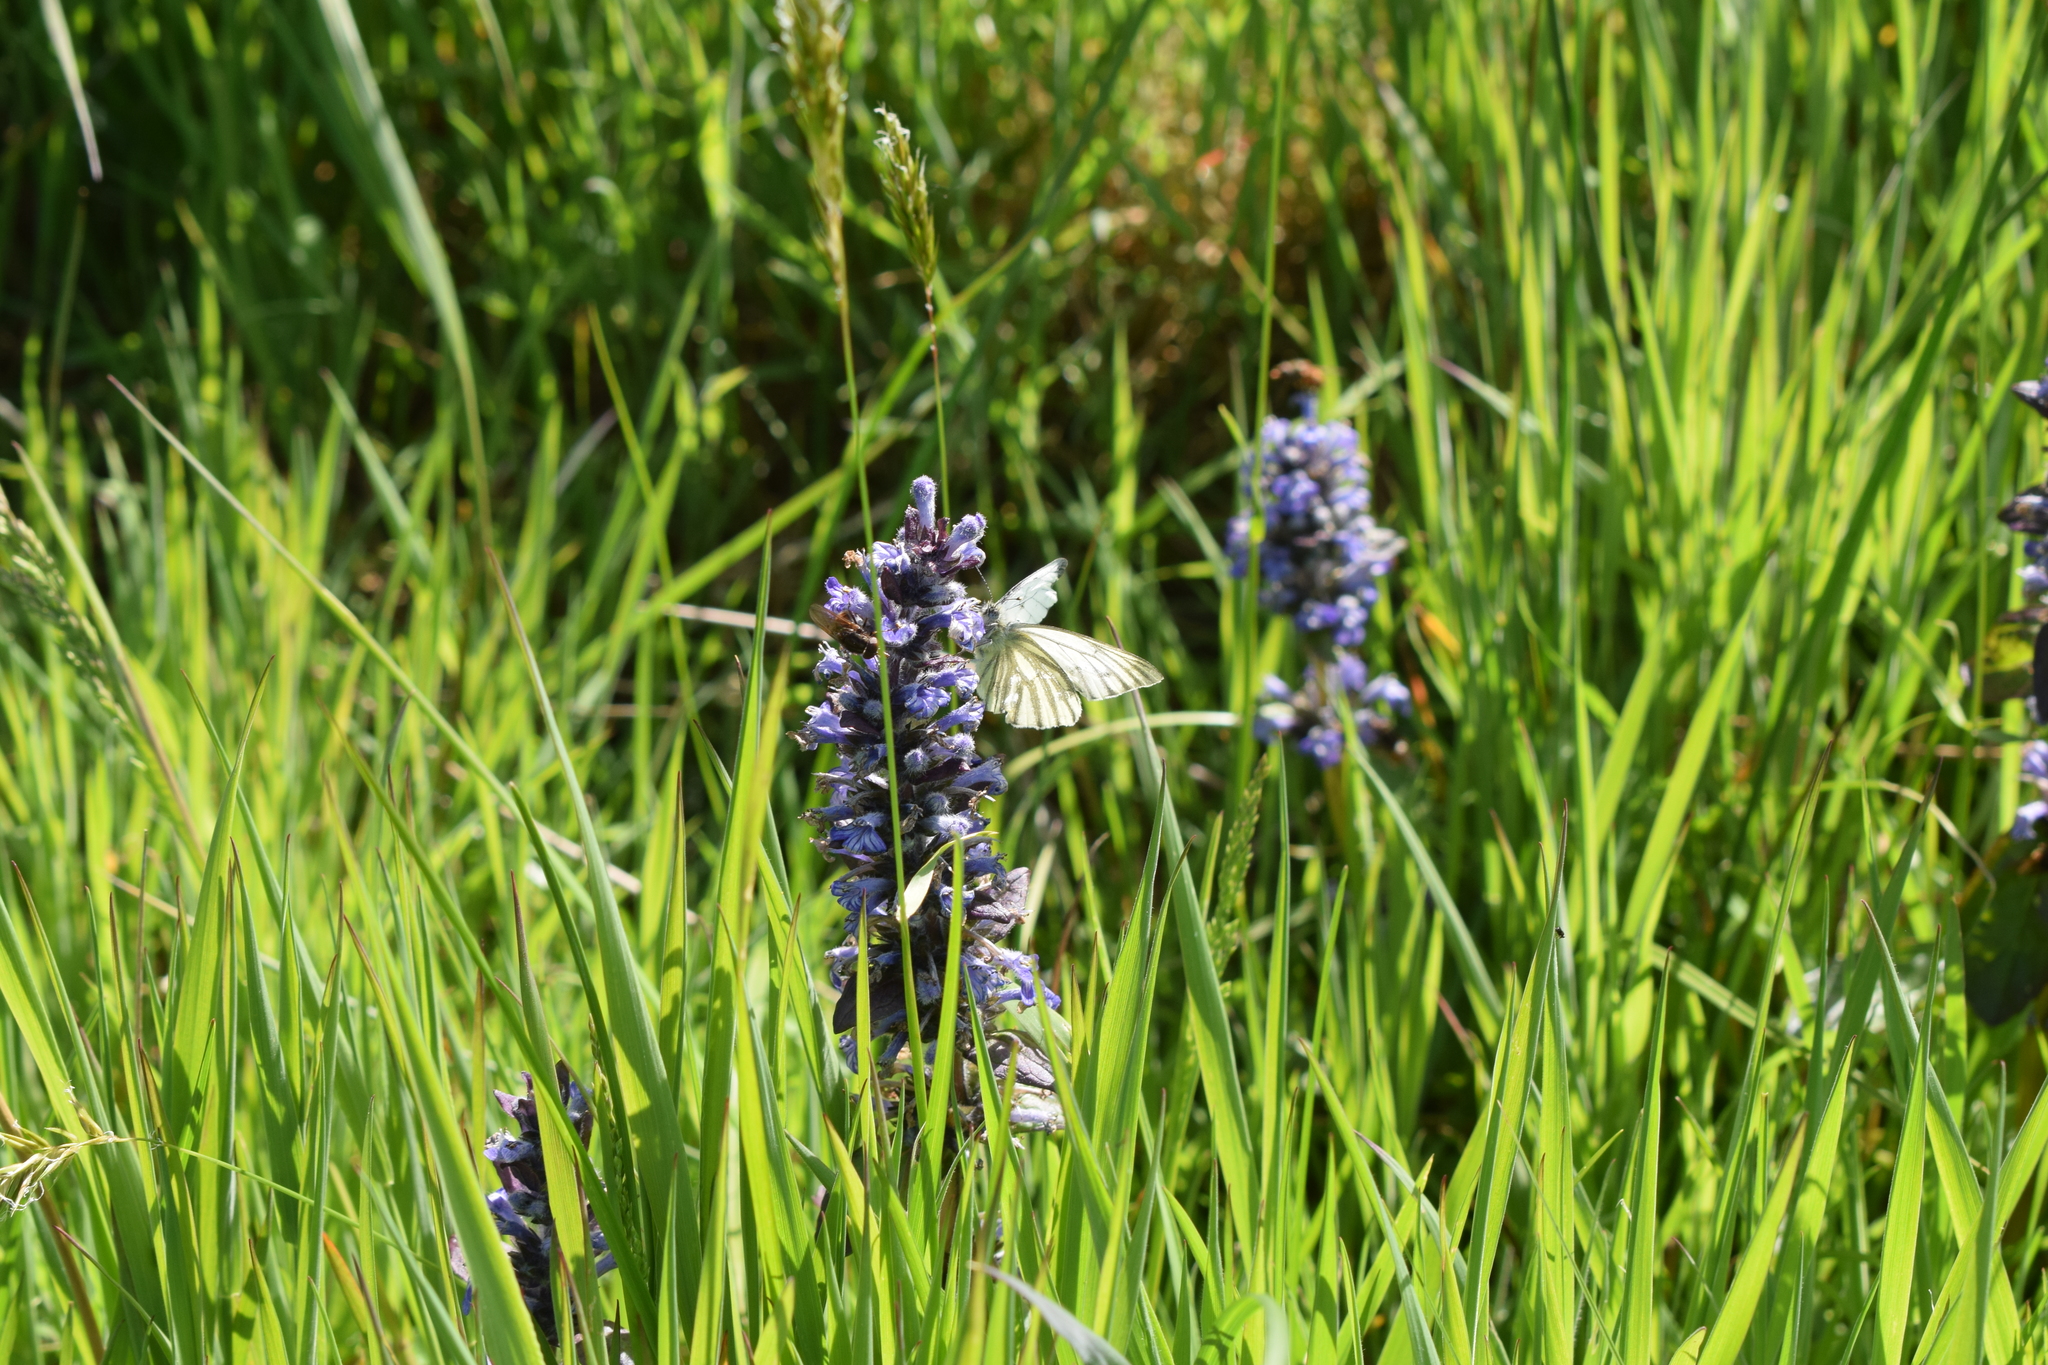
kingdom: Animalia
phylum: Arthropoda
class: Insecta
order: Lepidoptera
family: Pieridae
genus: Pieris
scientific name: Pieris napi
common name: Green-veined white
